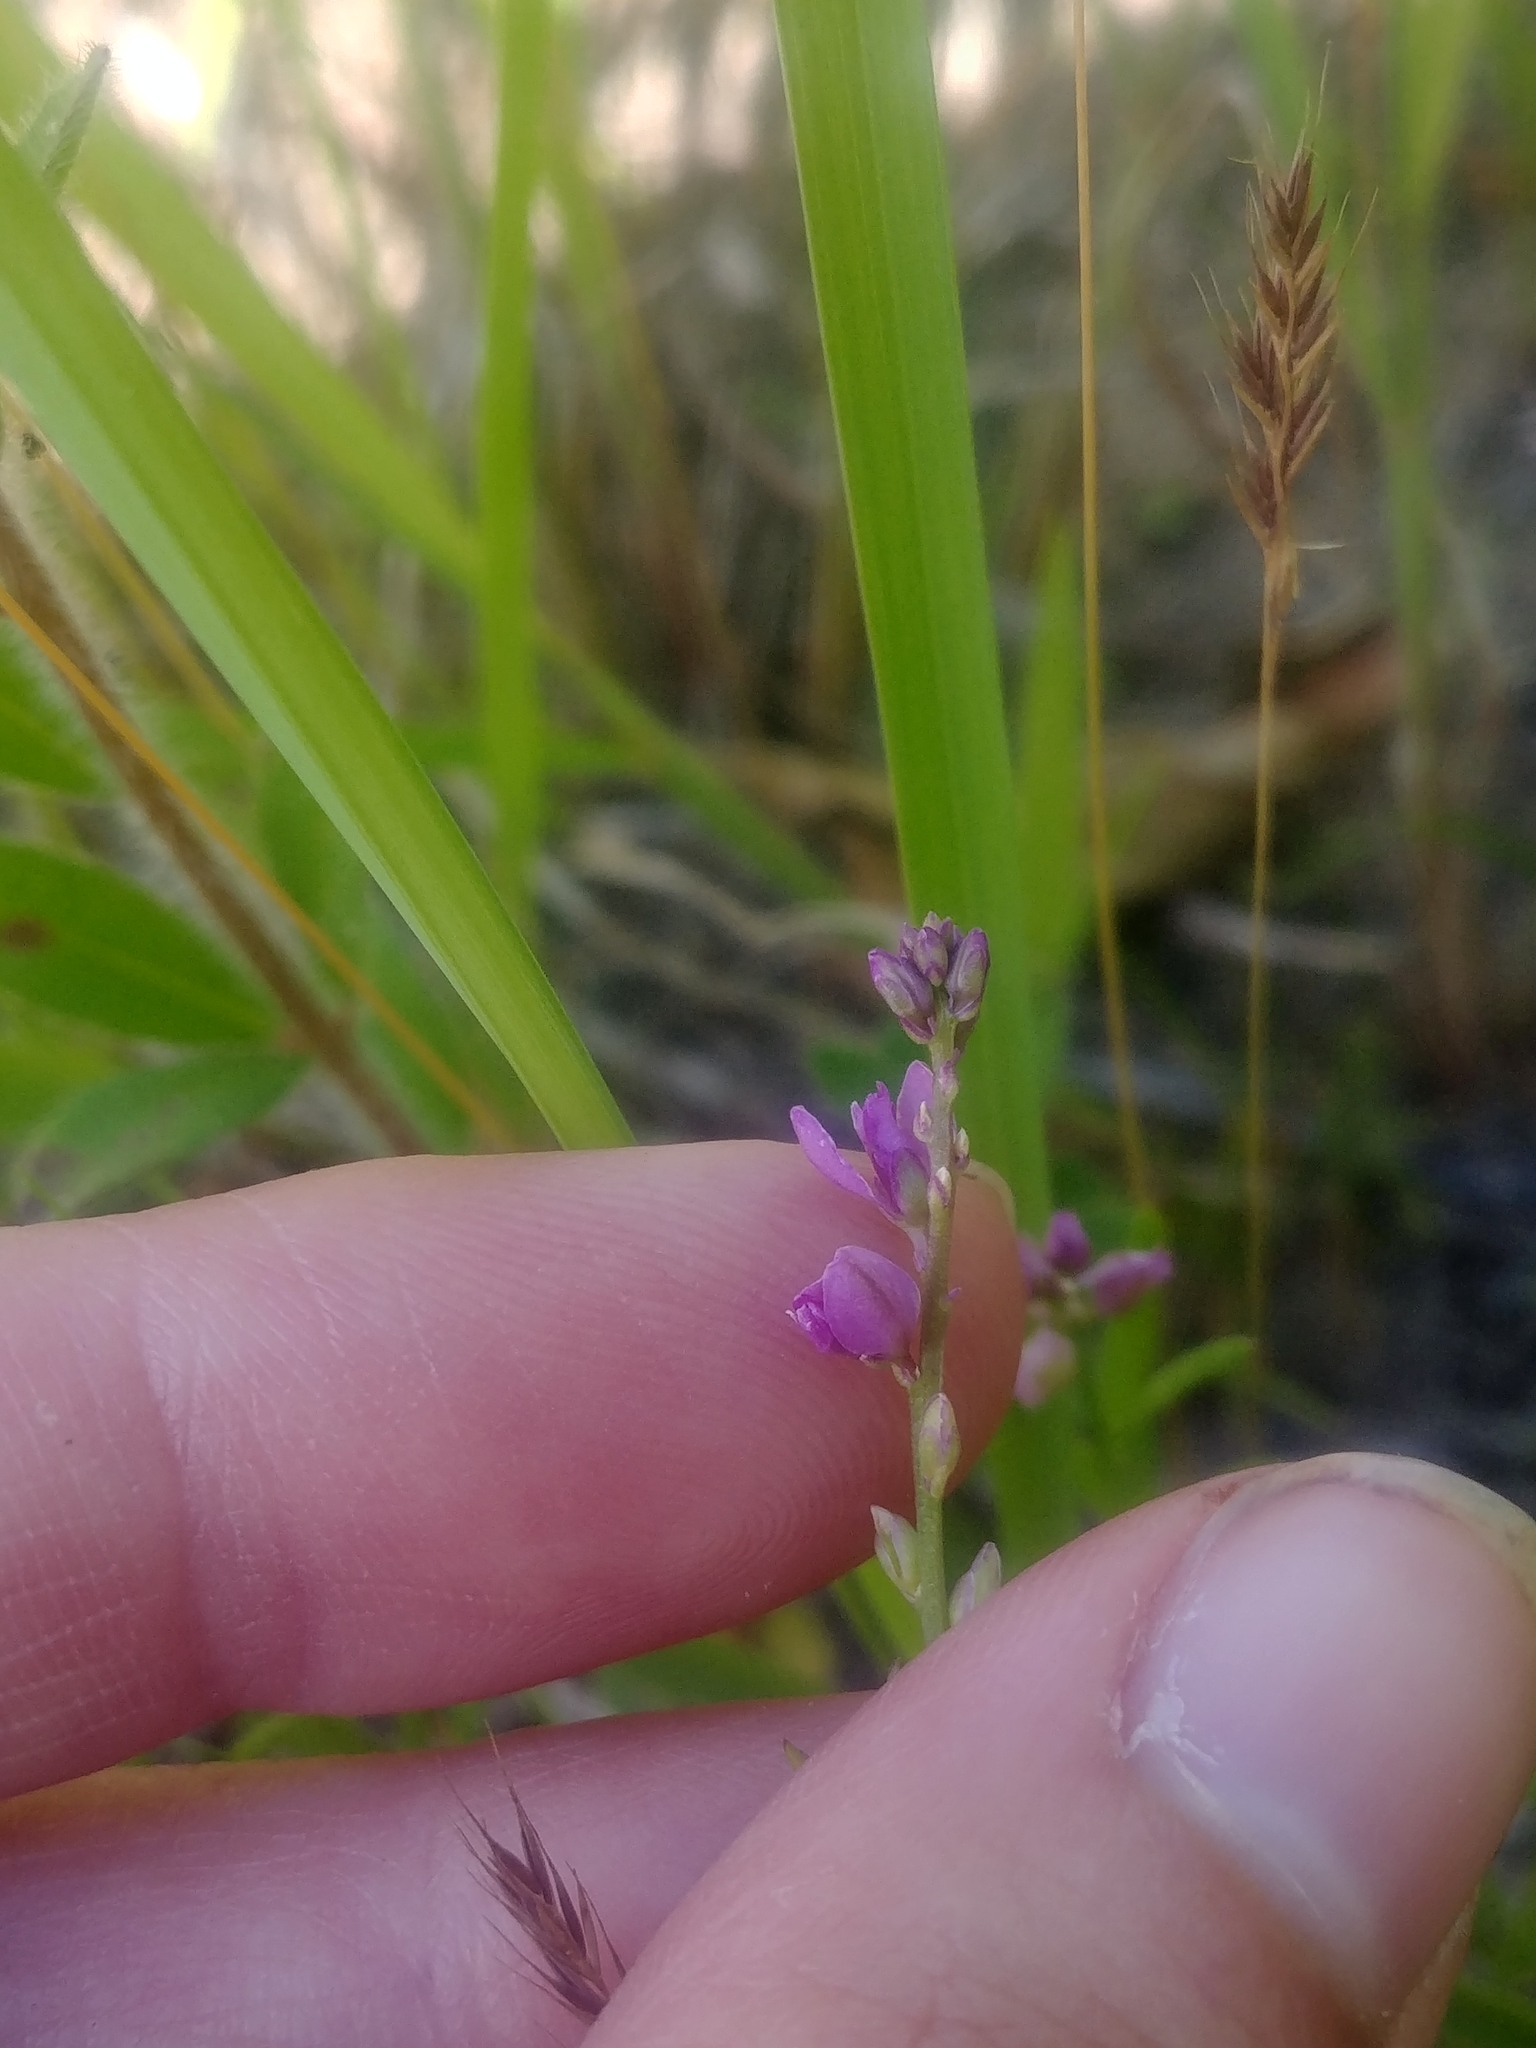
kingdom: Plantae
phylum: Tracheophyta
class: Magnoliopsida
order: Fabales
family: Polygalaceae
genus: Polygala
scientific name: Polygala polygama
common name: Bitter milkwort
